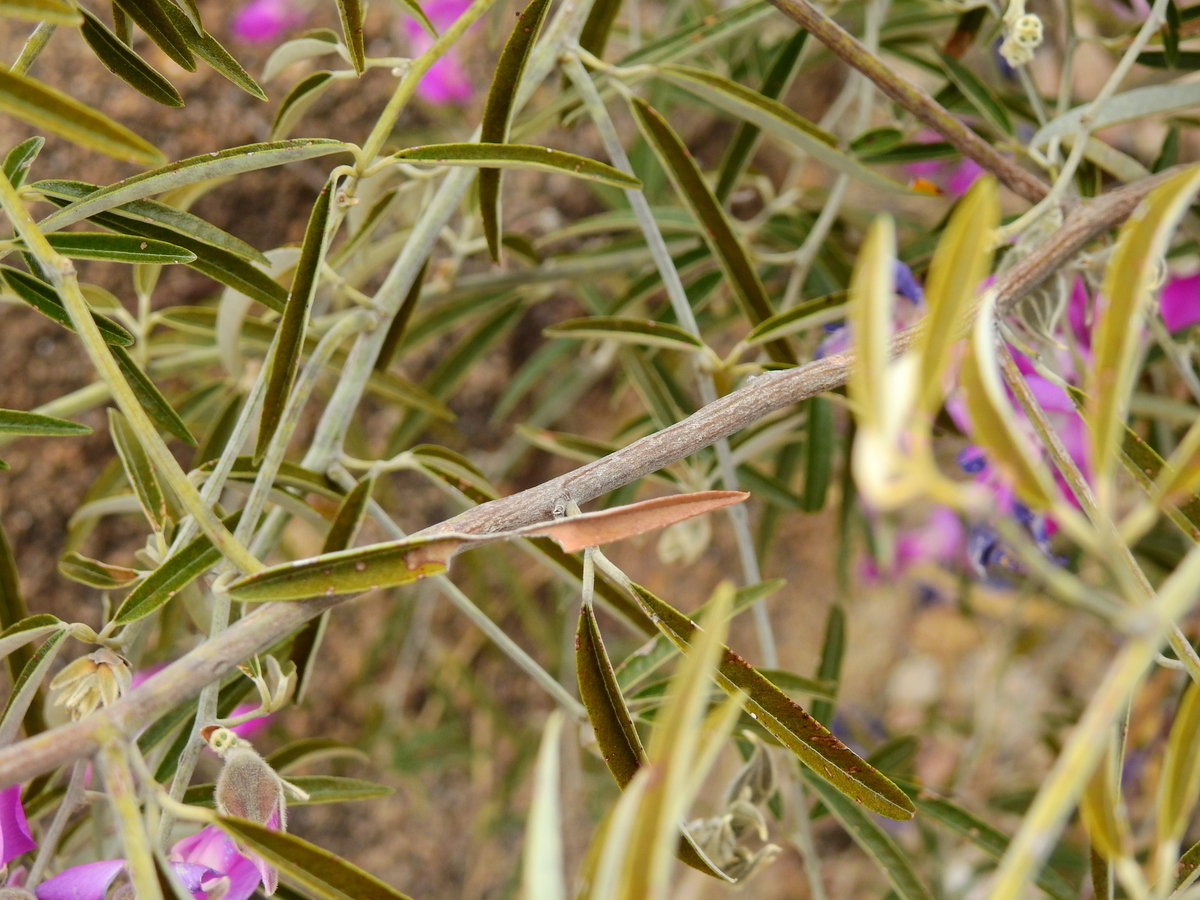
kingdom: Plantae
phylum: Tracheophyta
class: Magnoliopsida
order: Fabales
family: Fabaceae
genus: Nanogalactia
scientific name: Nanogalactia heterophylla
